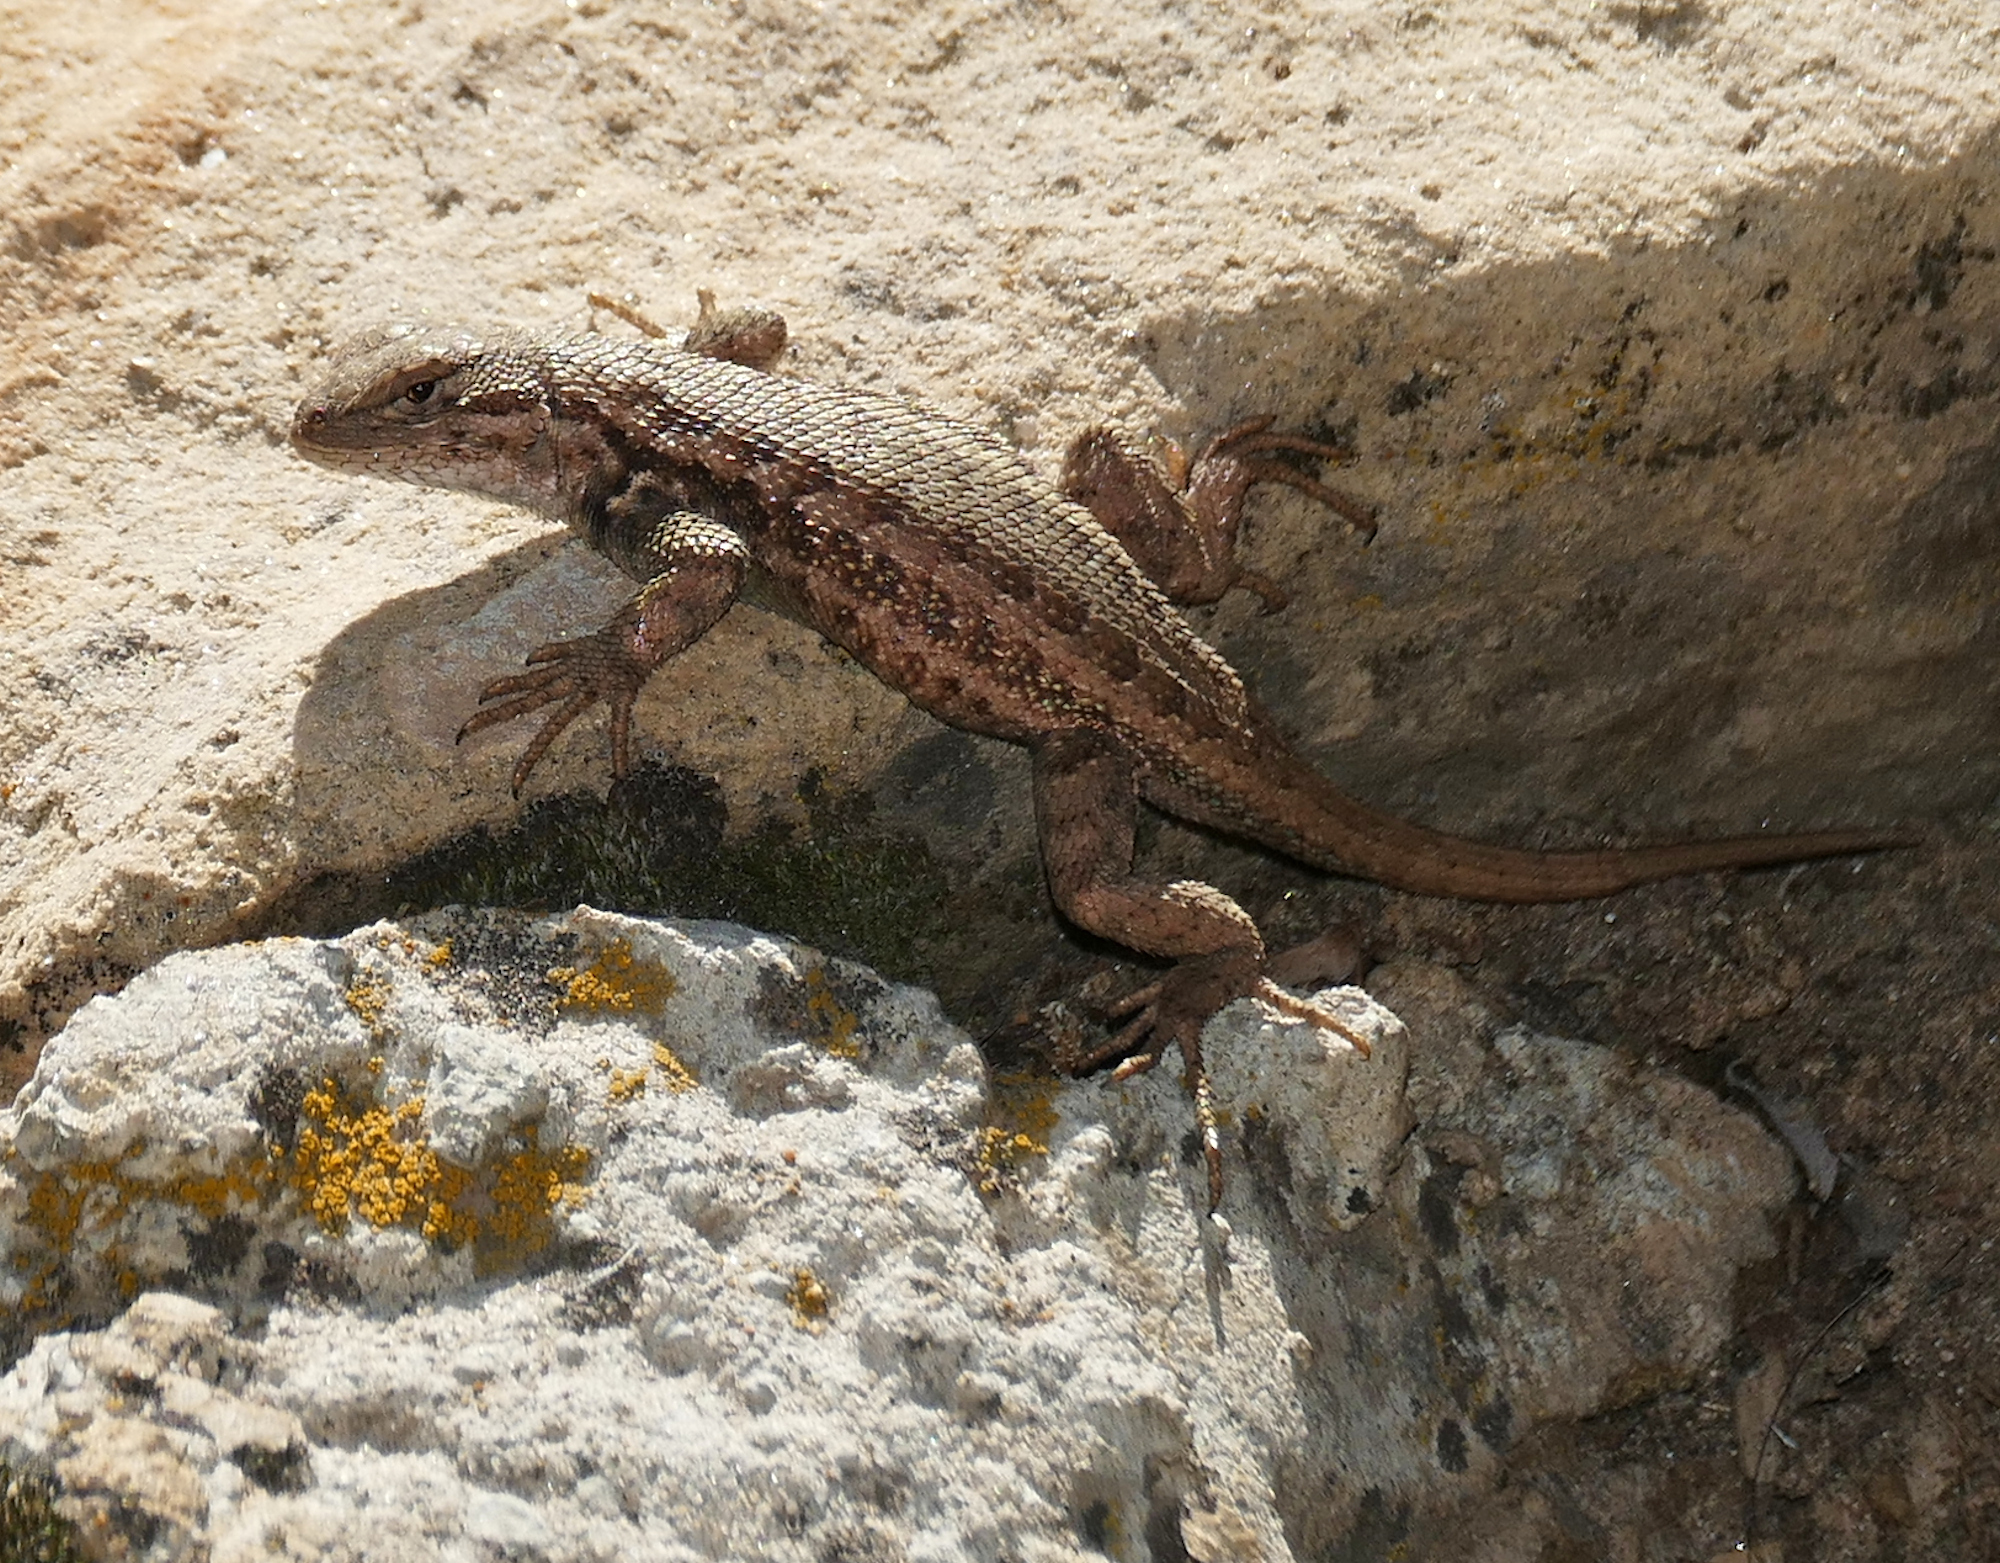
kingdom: Animalia
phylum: Chordata
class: Squamata
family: Phrynosomatidae
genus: Sceloporus
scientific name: Sceloporus graciosus
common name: Sagebrush lizard
